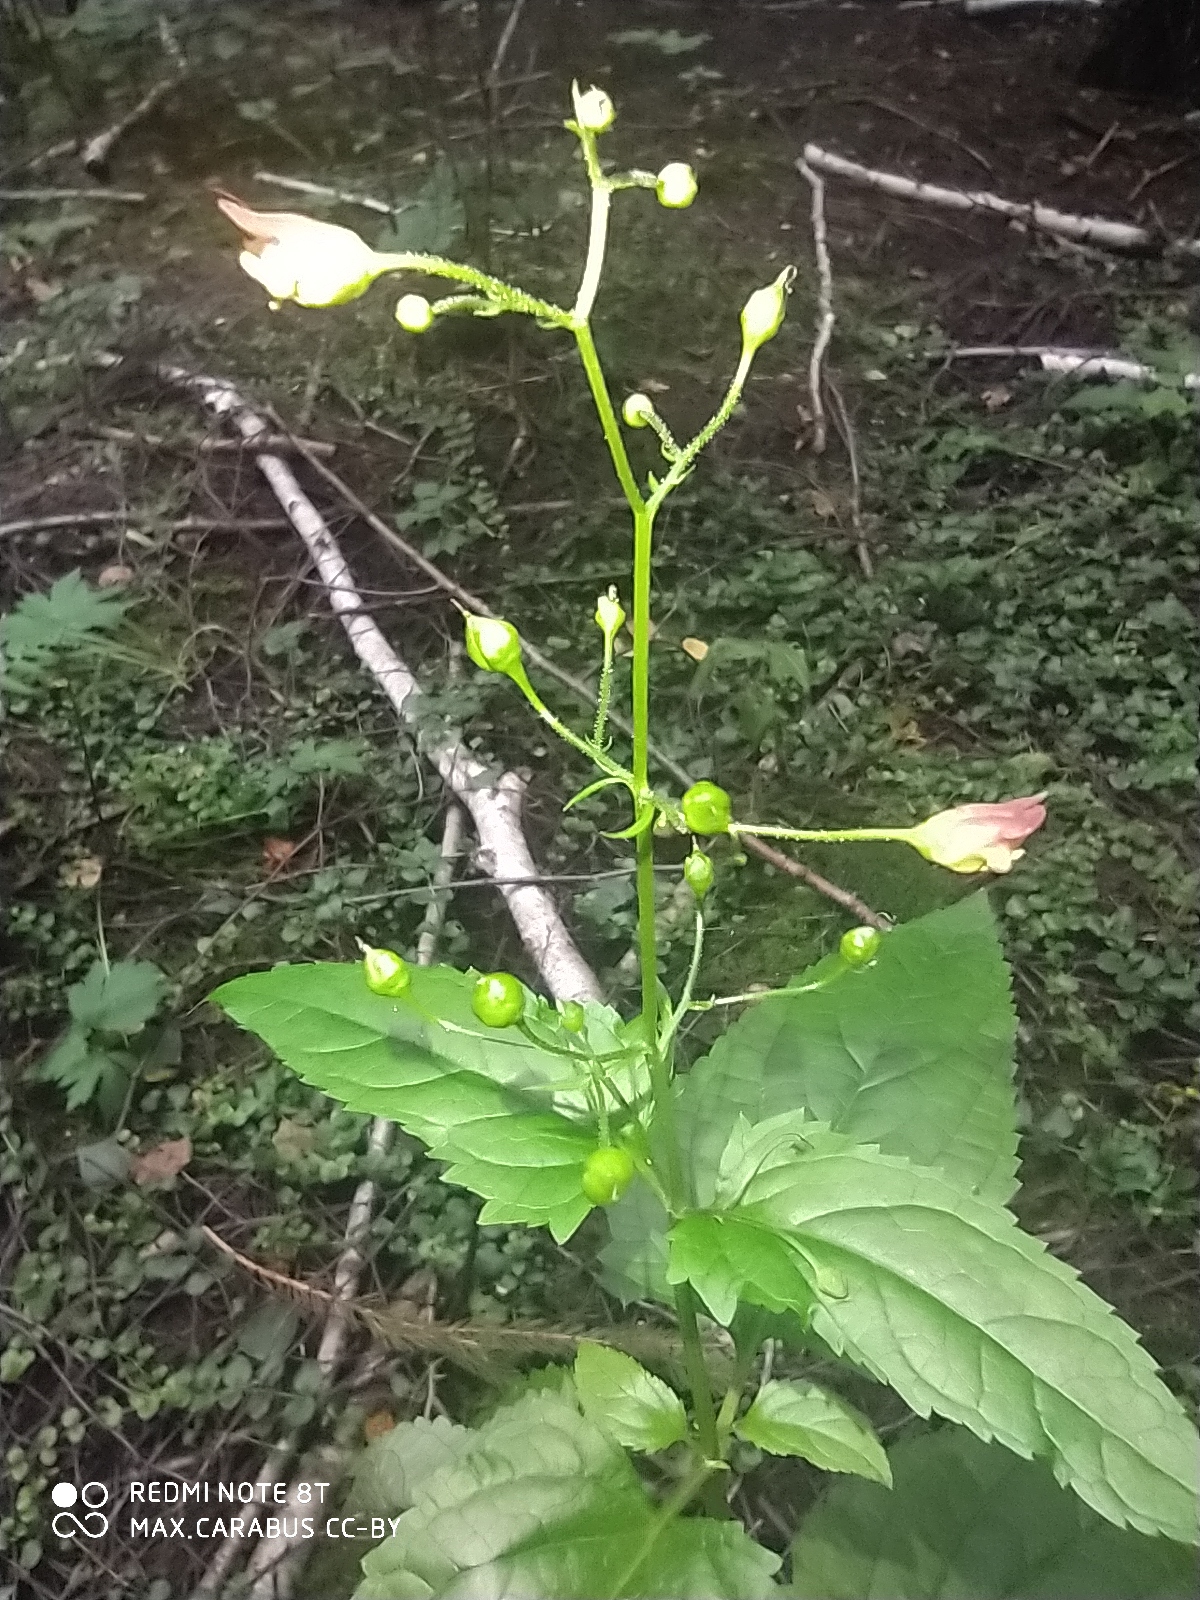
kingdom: Plantae
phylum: Tracheophyta
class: Magnoliopsida
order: Lamiales
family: Scrophulariaceae
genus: Scrophularia
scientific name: Scrophularia nodosa
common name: Common figwort
